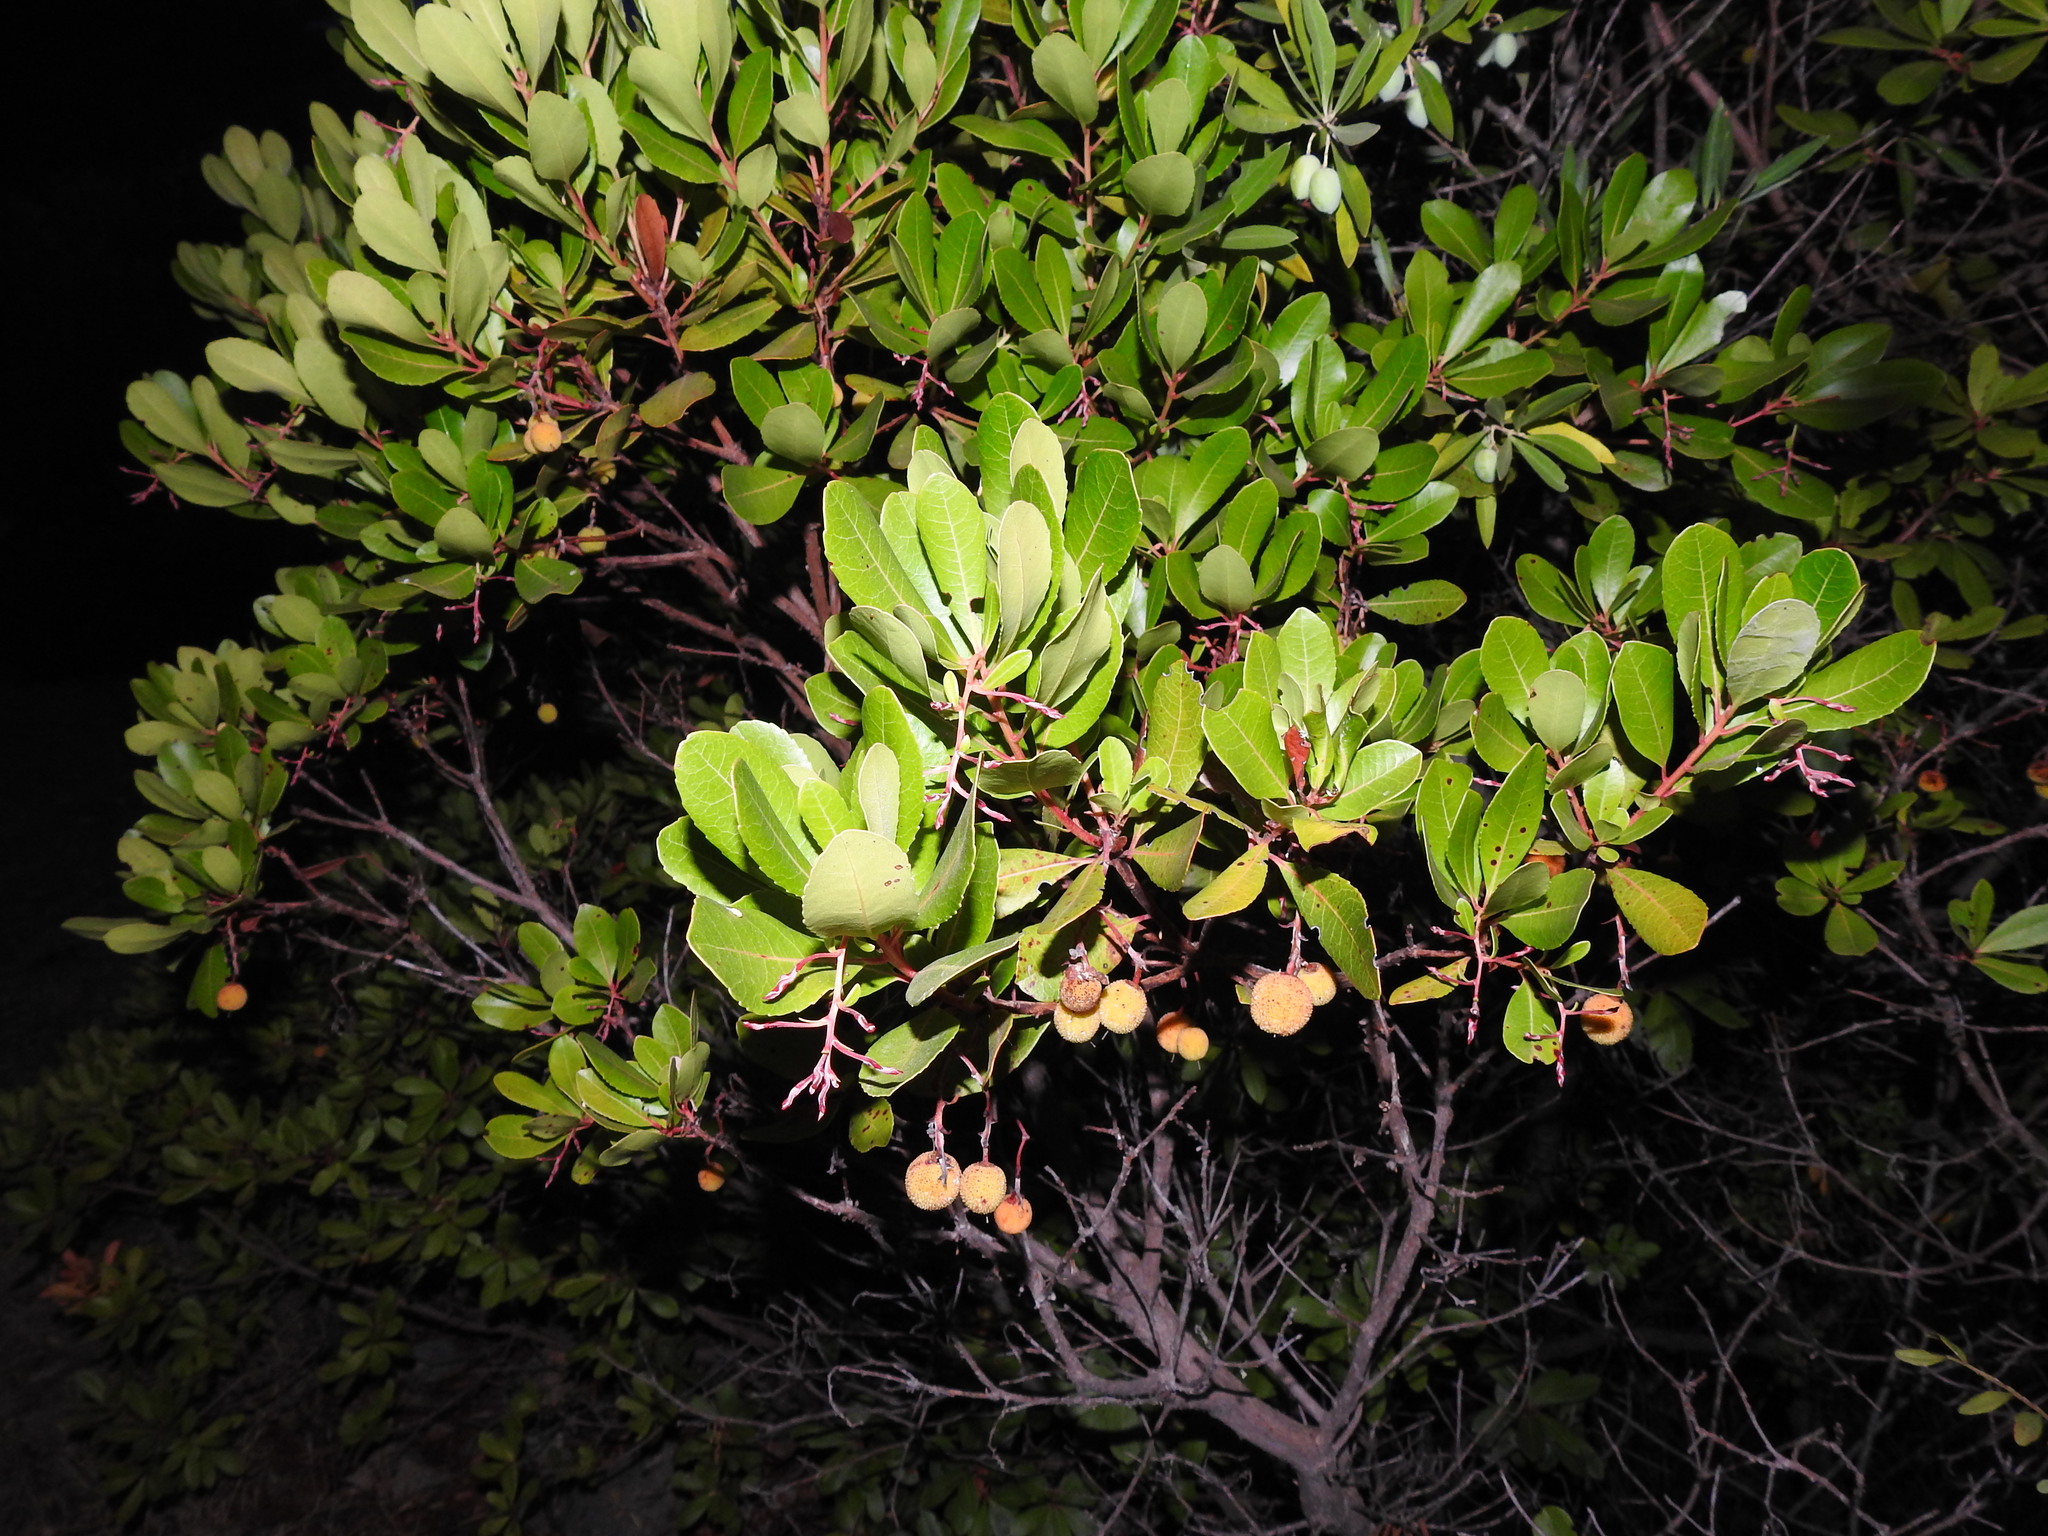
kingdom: Plantae
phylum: Tracheophyta
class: Magnoliopsida
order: Ericales
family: Ericaceae
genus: Arbutus
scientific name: Arbutus unedo
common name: Strawberry-tree
